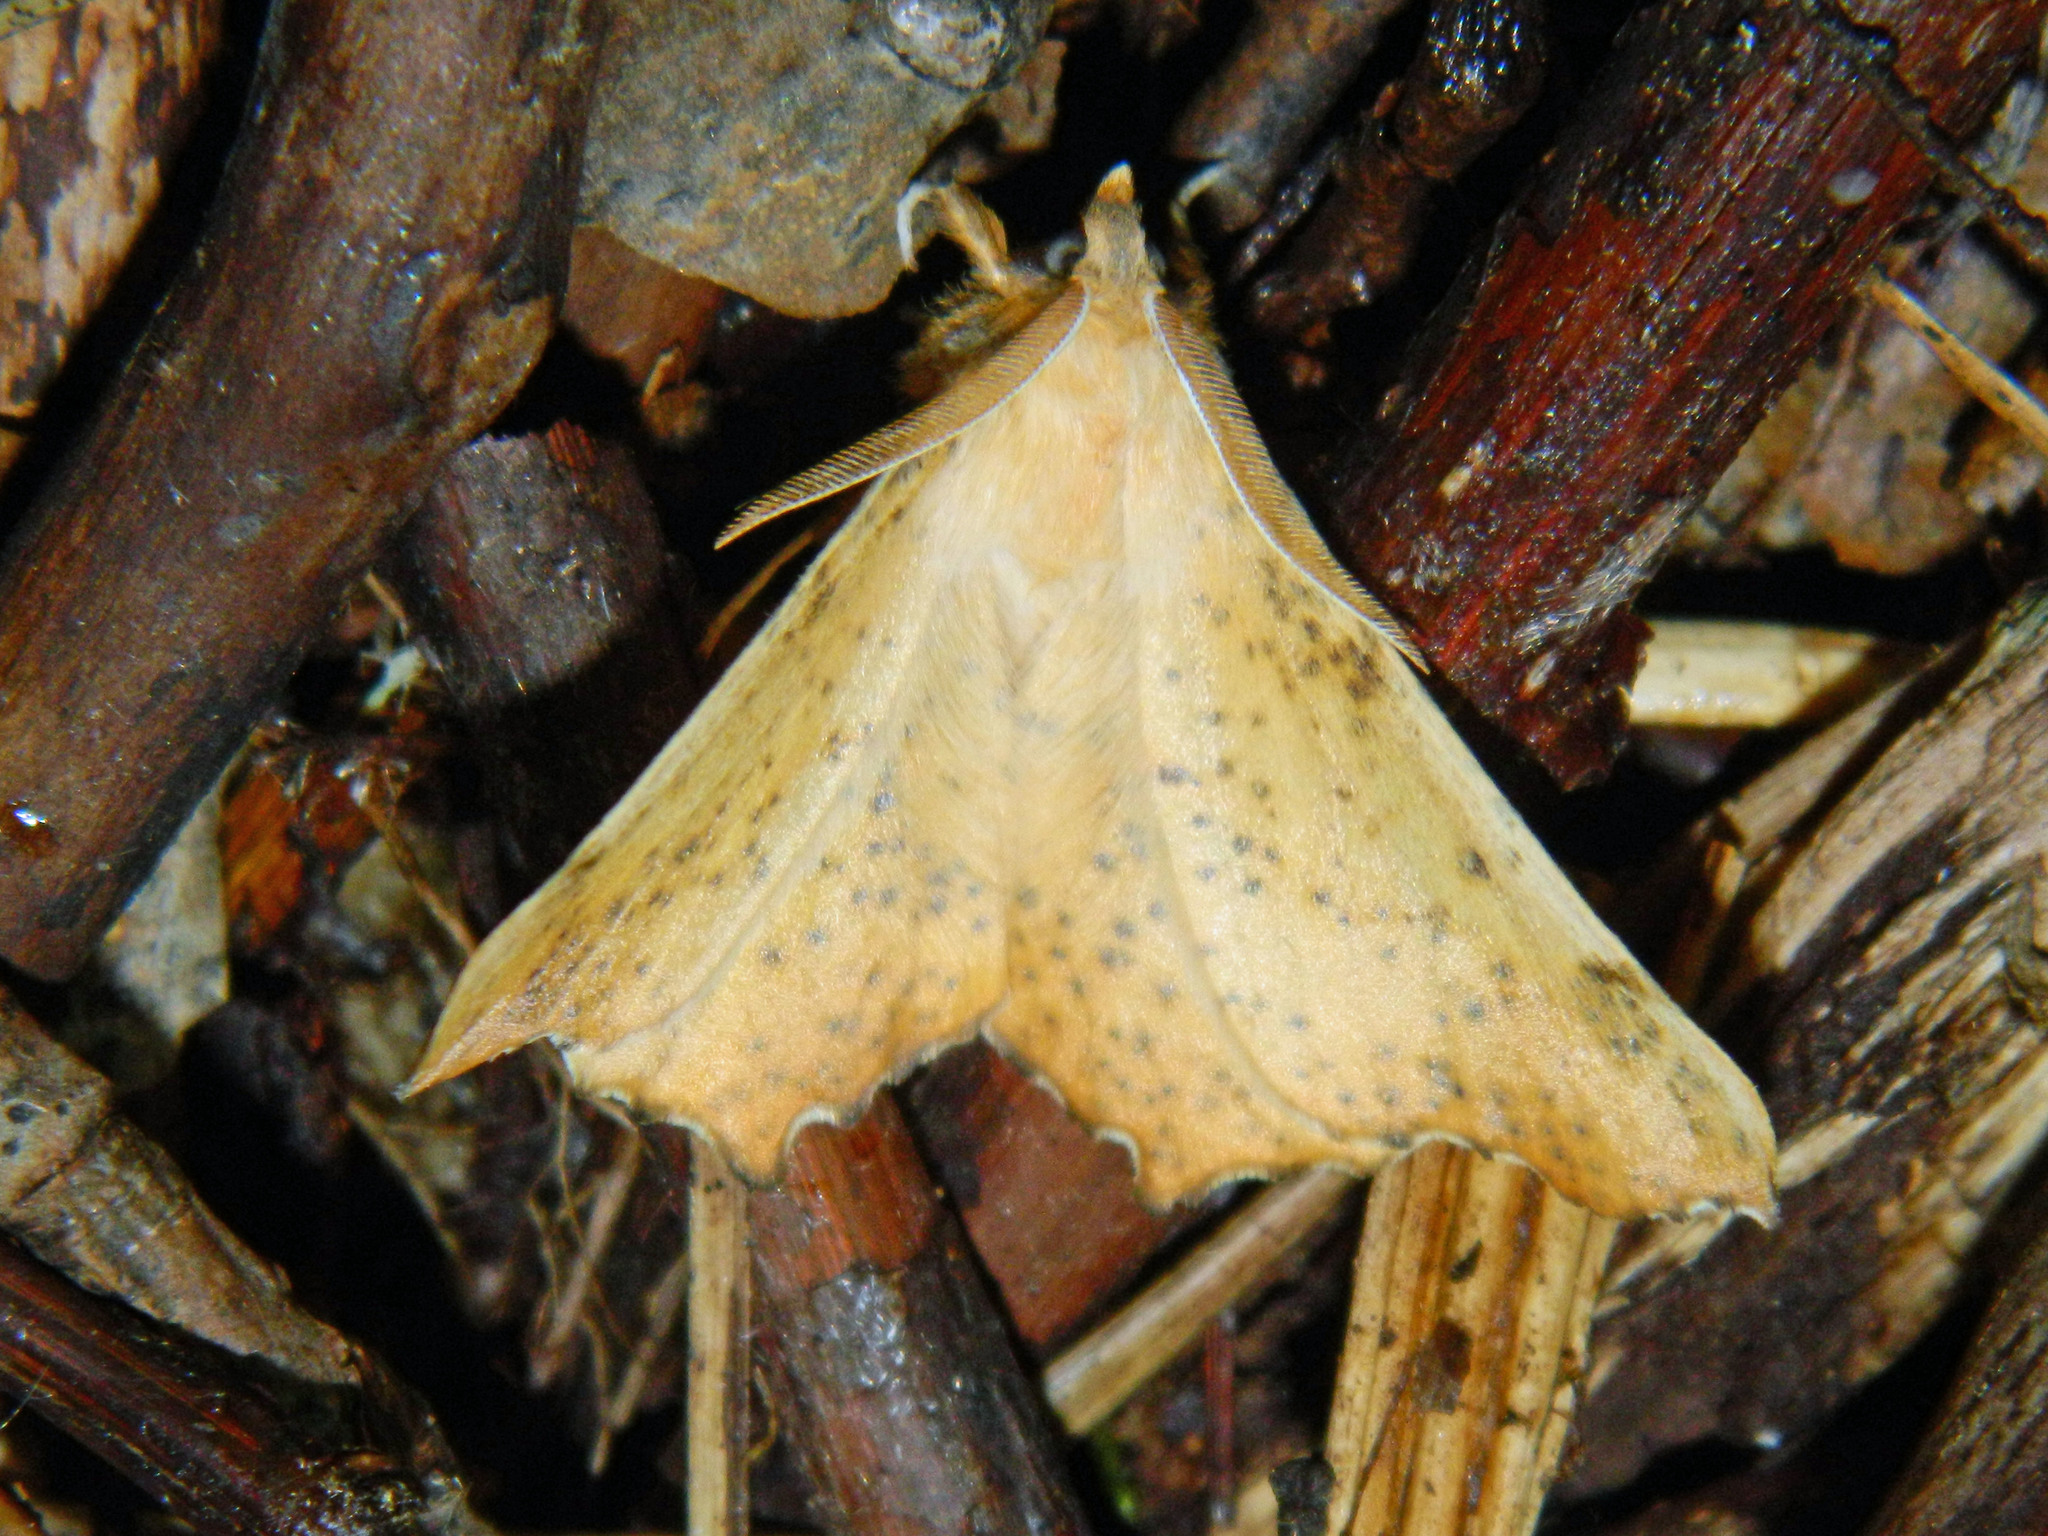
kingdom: Animalia
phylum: Arthropoda
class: Insecta
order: Lepidoptera
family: Geometridae
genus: Ennomos
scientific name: Ennomos magnaria
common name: Maple spanworm
